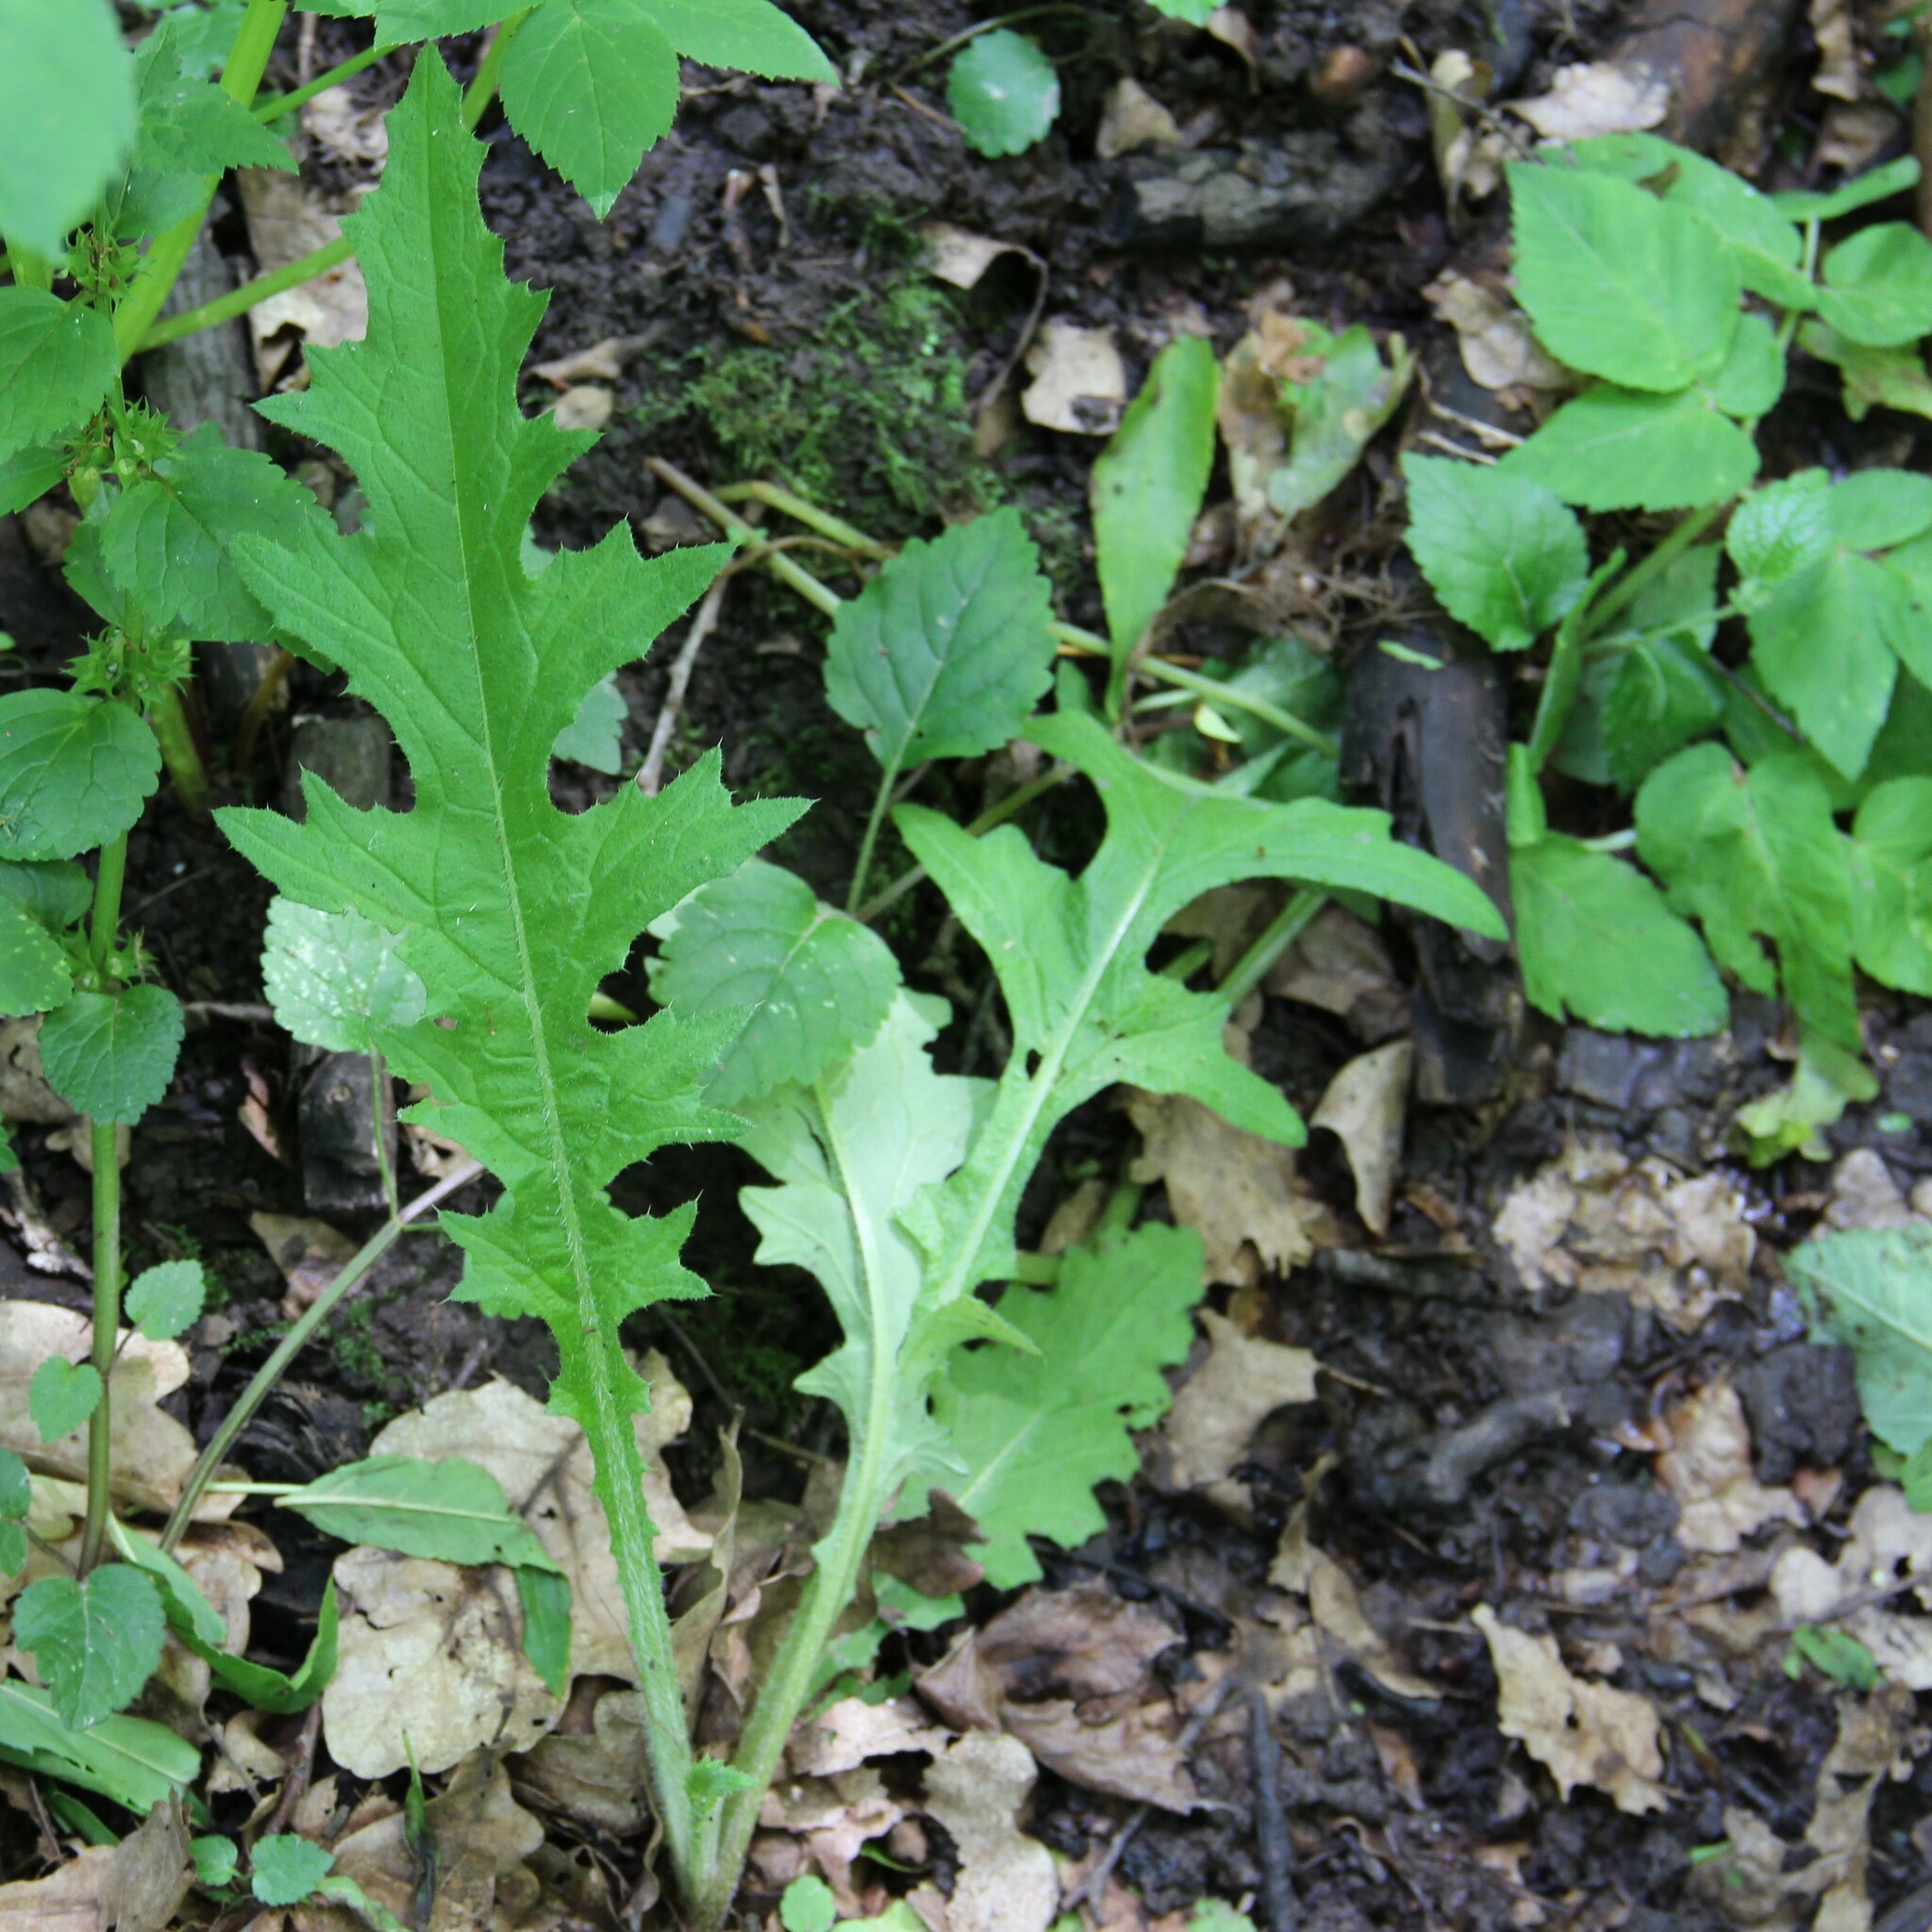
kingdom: Plantae
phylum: Tracheophyta
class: Magnoliopsida
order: Asterales
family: Asteraceae
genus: Cirsium
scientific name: Cirsium vulgare
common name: Bull thistle
